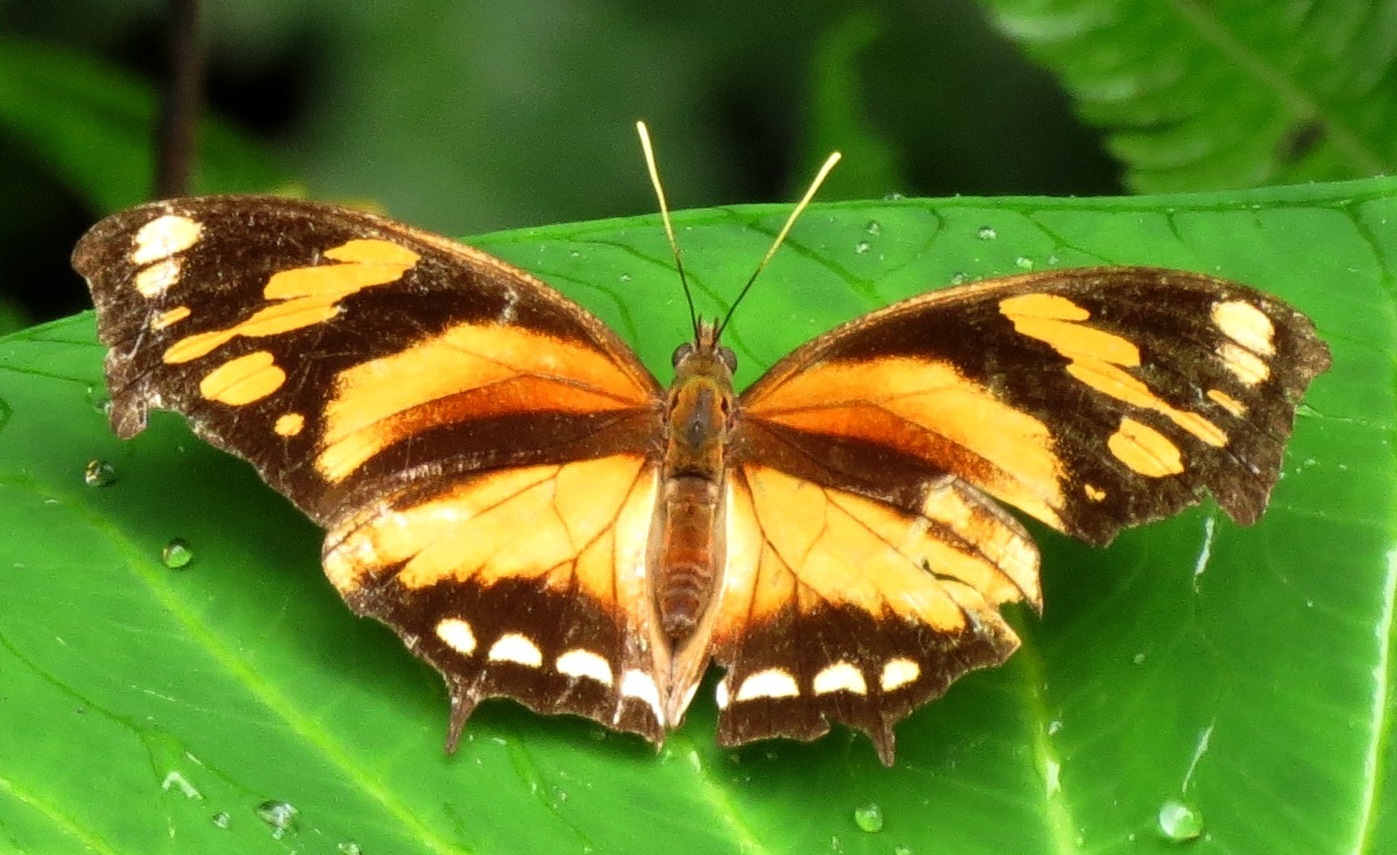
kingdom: Animalia
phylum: Arthropoda
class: Insecta
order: Lepidoptera
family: Nymphalidae
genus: Consul
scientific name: Consul fabius
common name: Tiger leafwing
